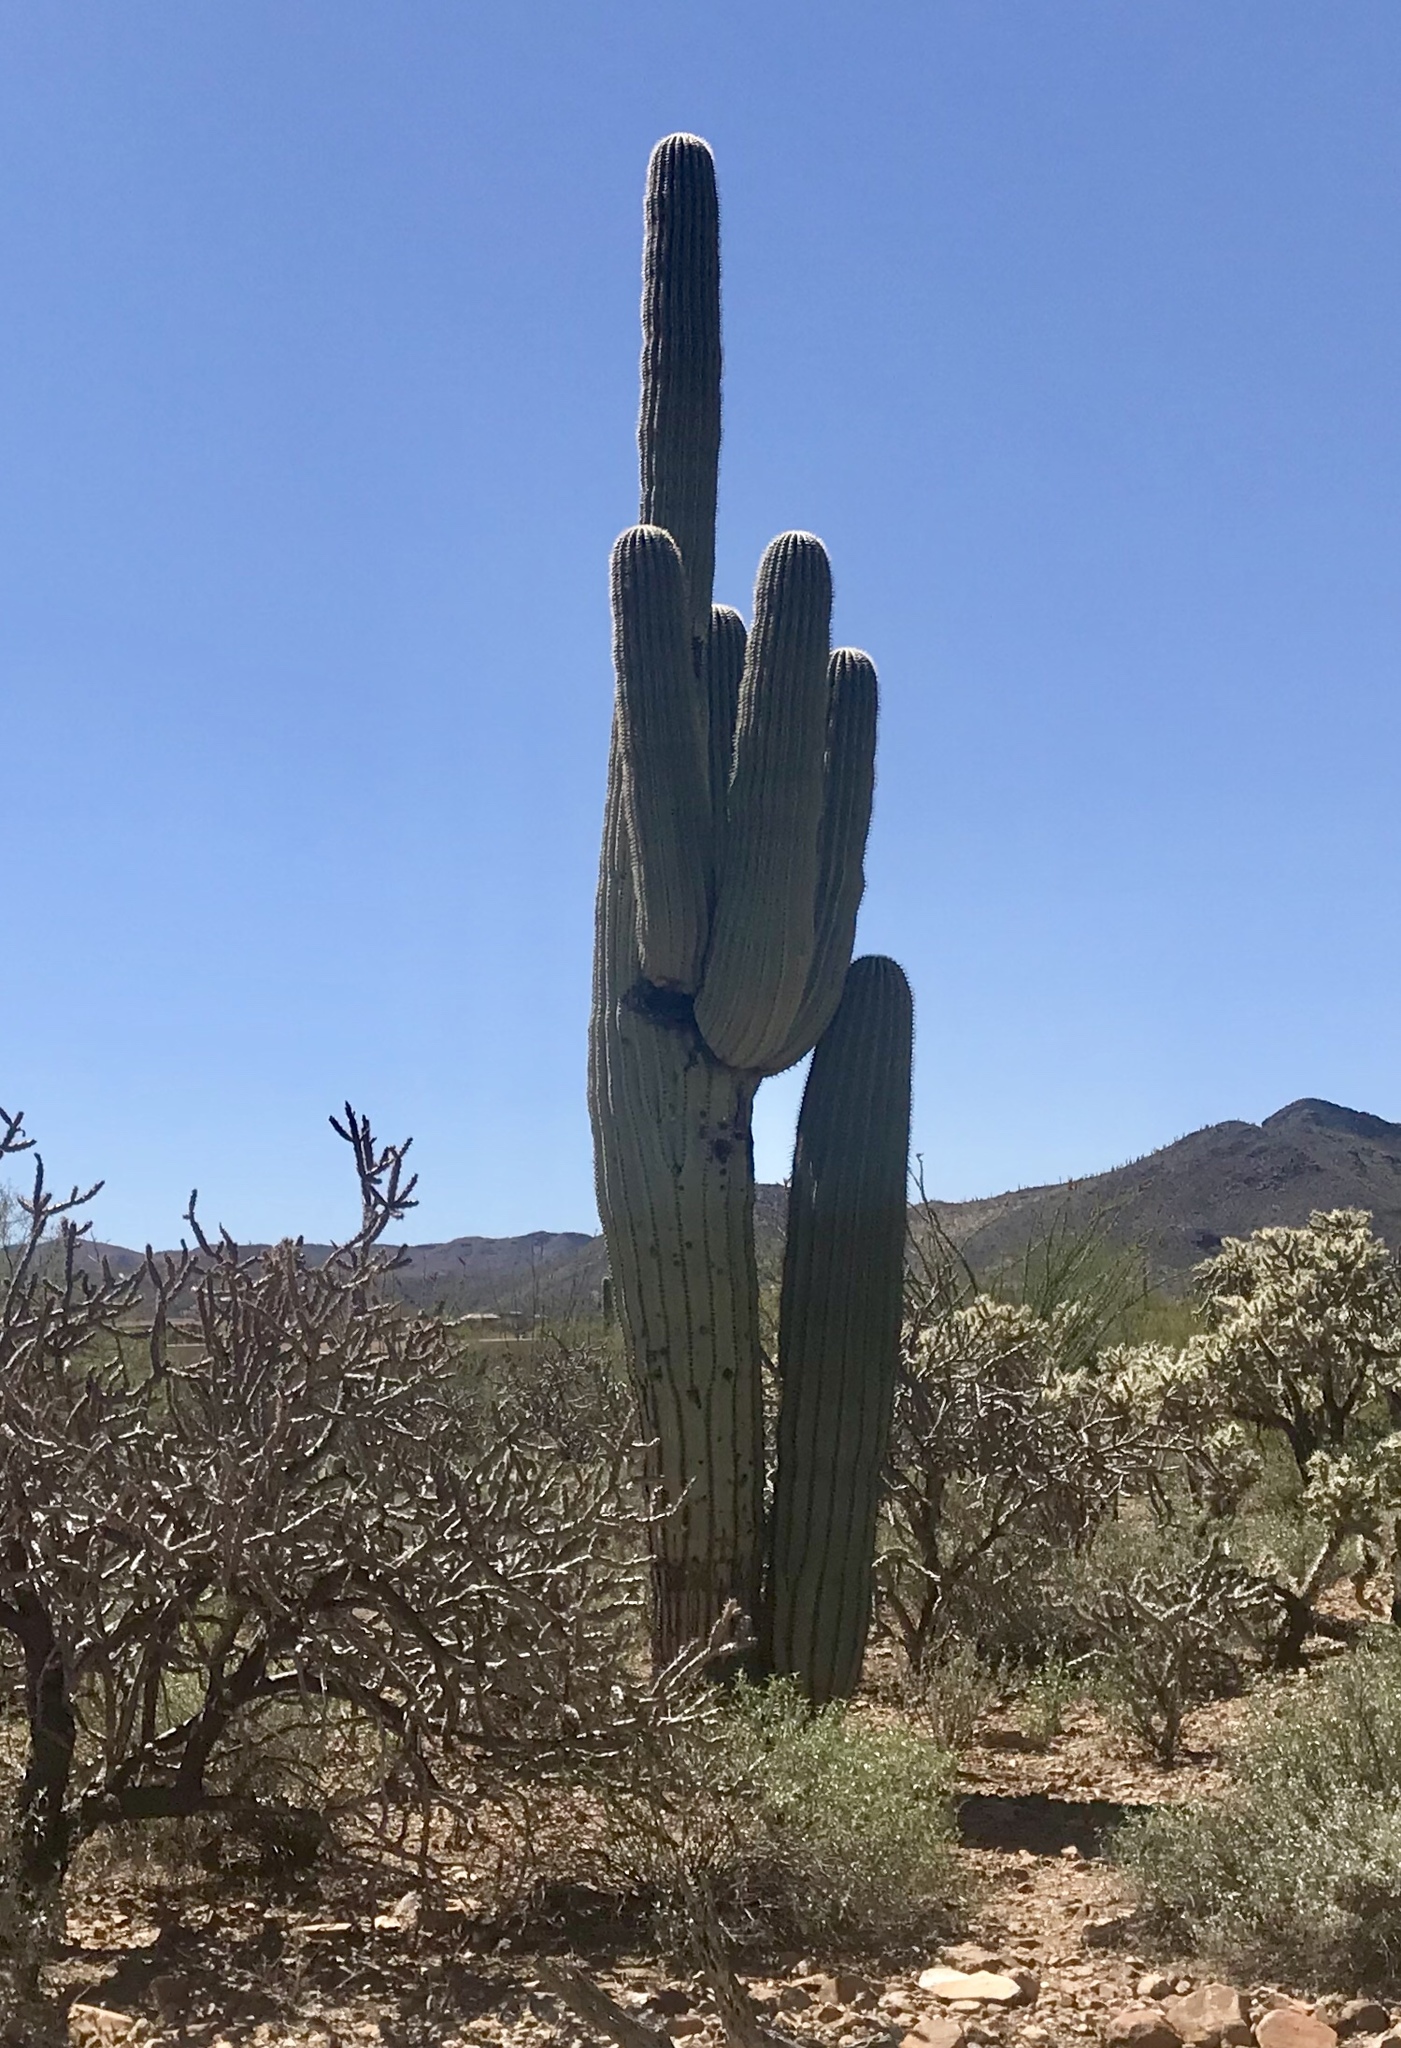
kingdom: Plantae
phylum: Tracheophyta
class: Magnoliopsida
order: Caryophyllales
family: Cactaceae
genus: Carnegiea
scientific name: Carnegiea gigantea
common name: Saguaro
